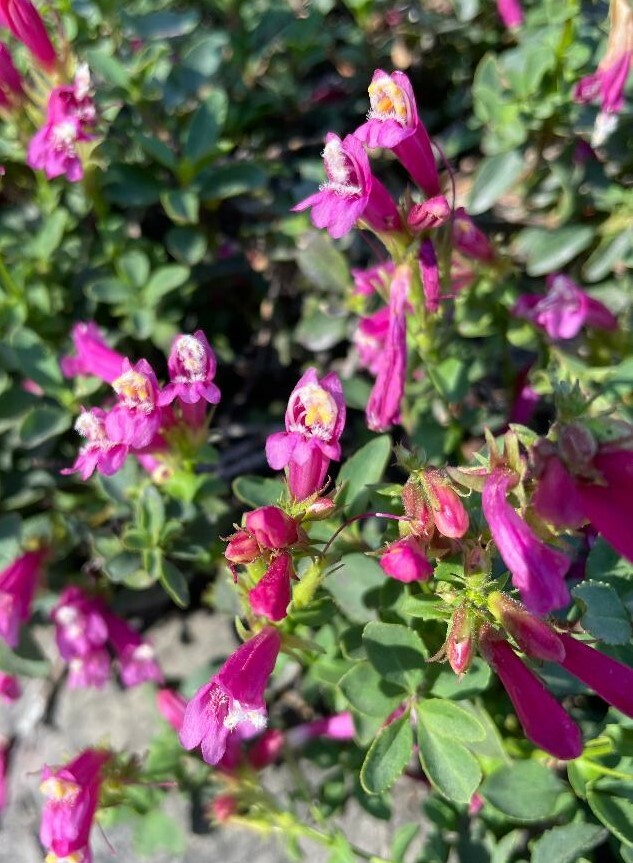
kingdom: Plantae
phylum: Tracheophyta
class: Magnoliopsida
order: Lamiales
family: Plantaginaceae
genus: Penstemon
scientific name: Penstemon newberryi
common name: Mountain-pride
